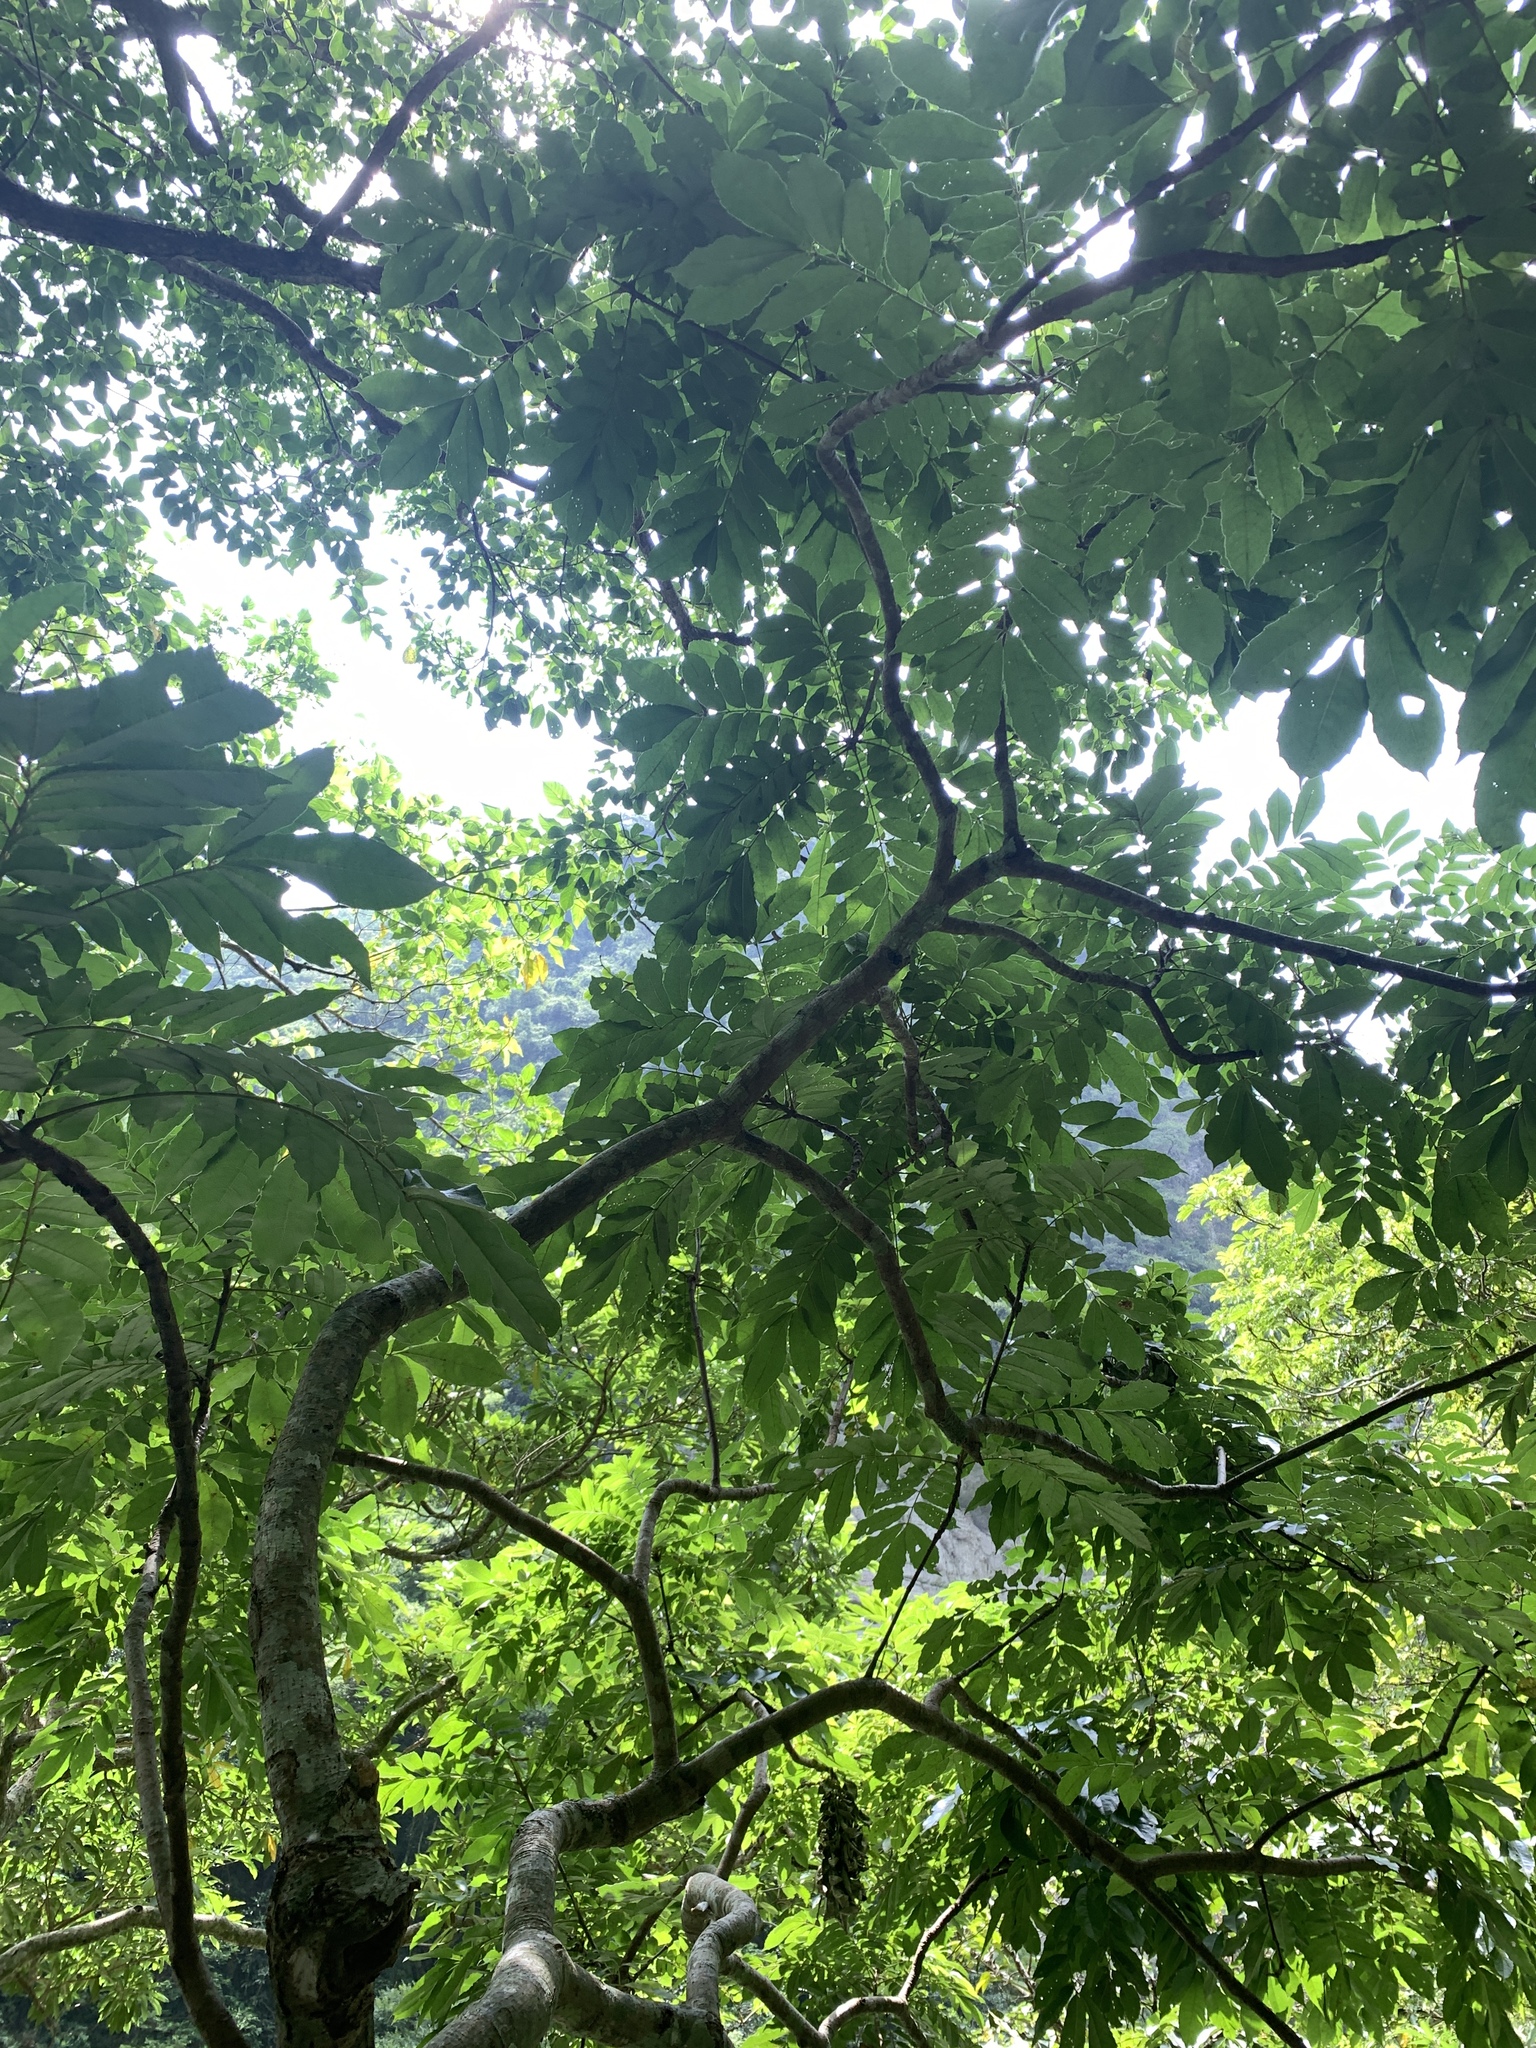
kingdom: Plantae
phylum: Tracheophyta
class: Magnoliopsida
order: Proteales
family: Sabiaceae
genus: Meliosma
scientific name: Meliosma rhoifolia
